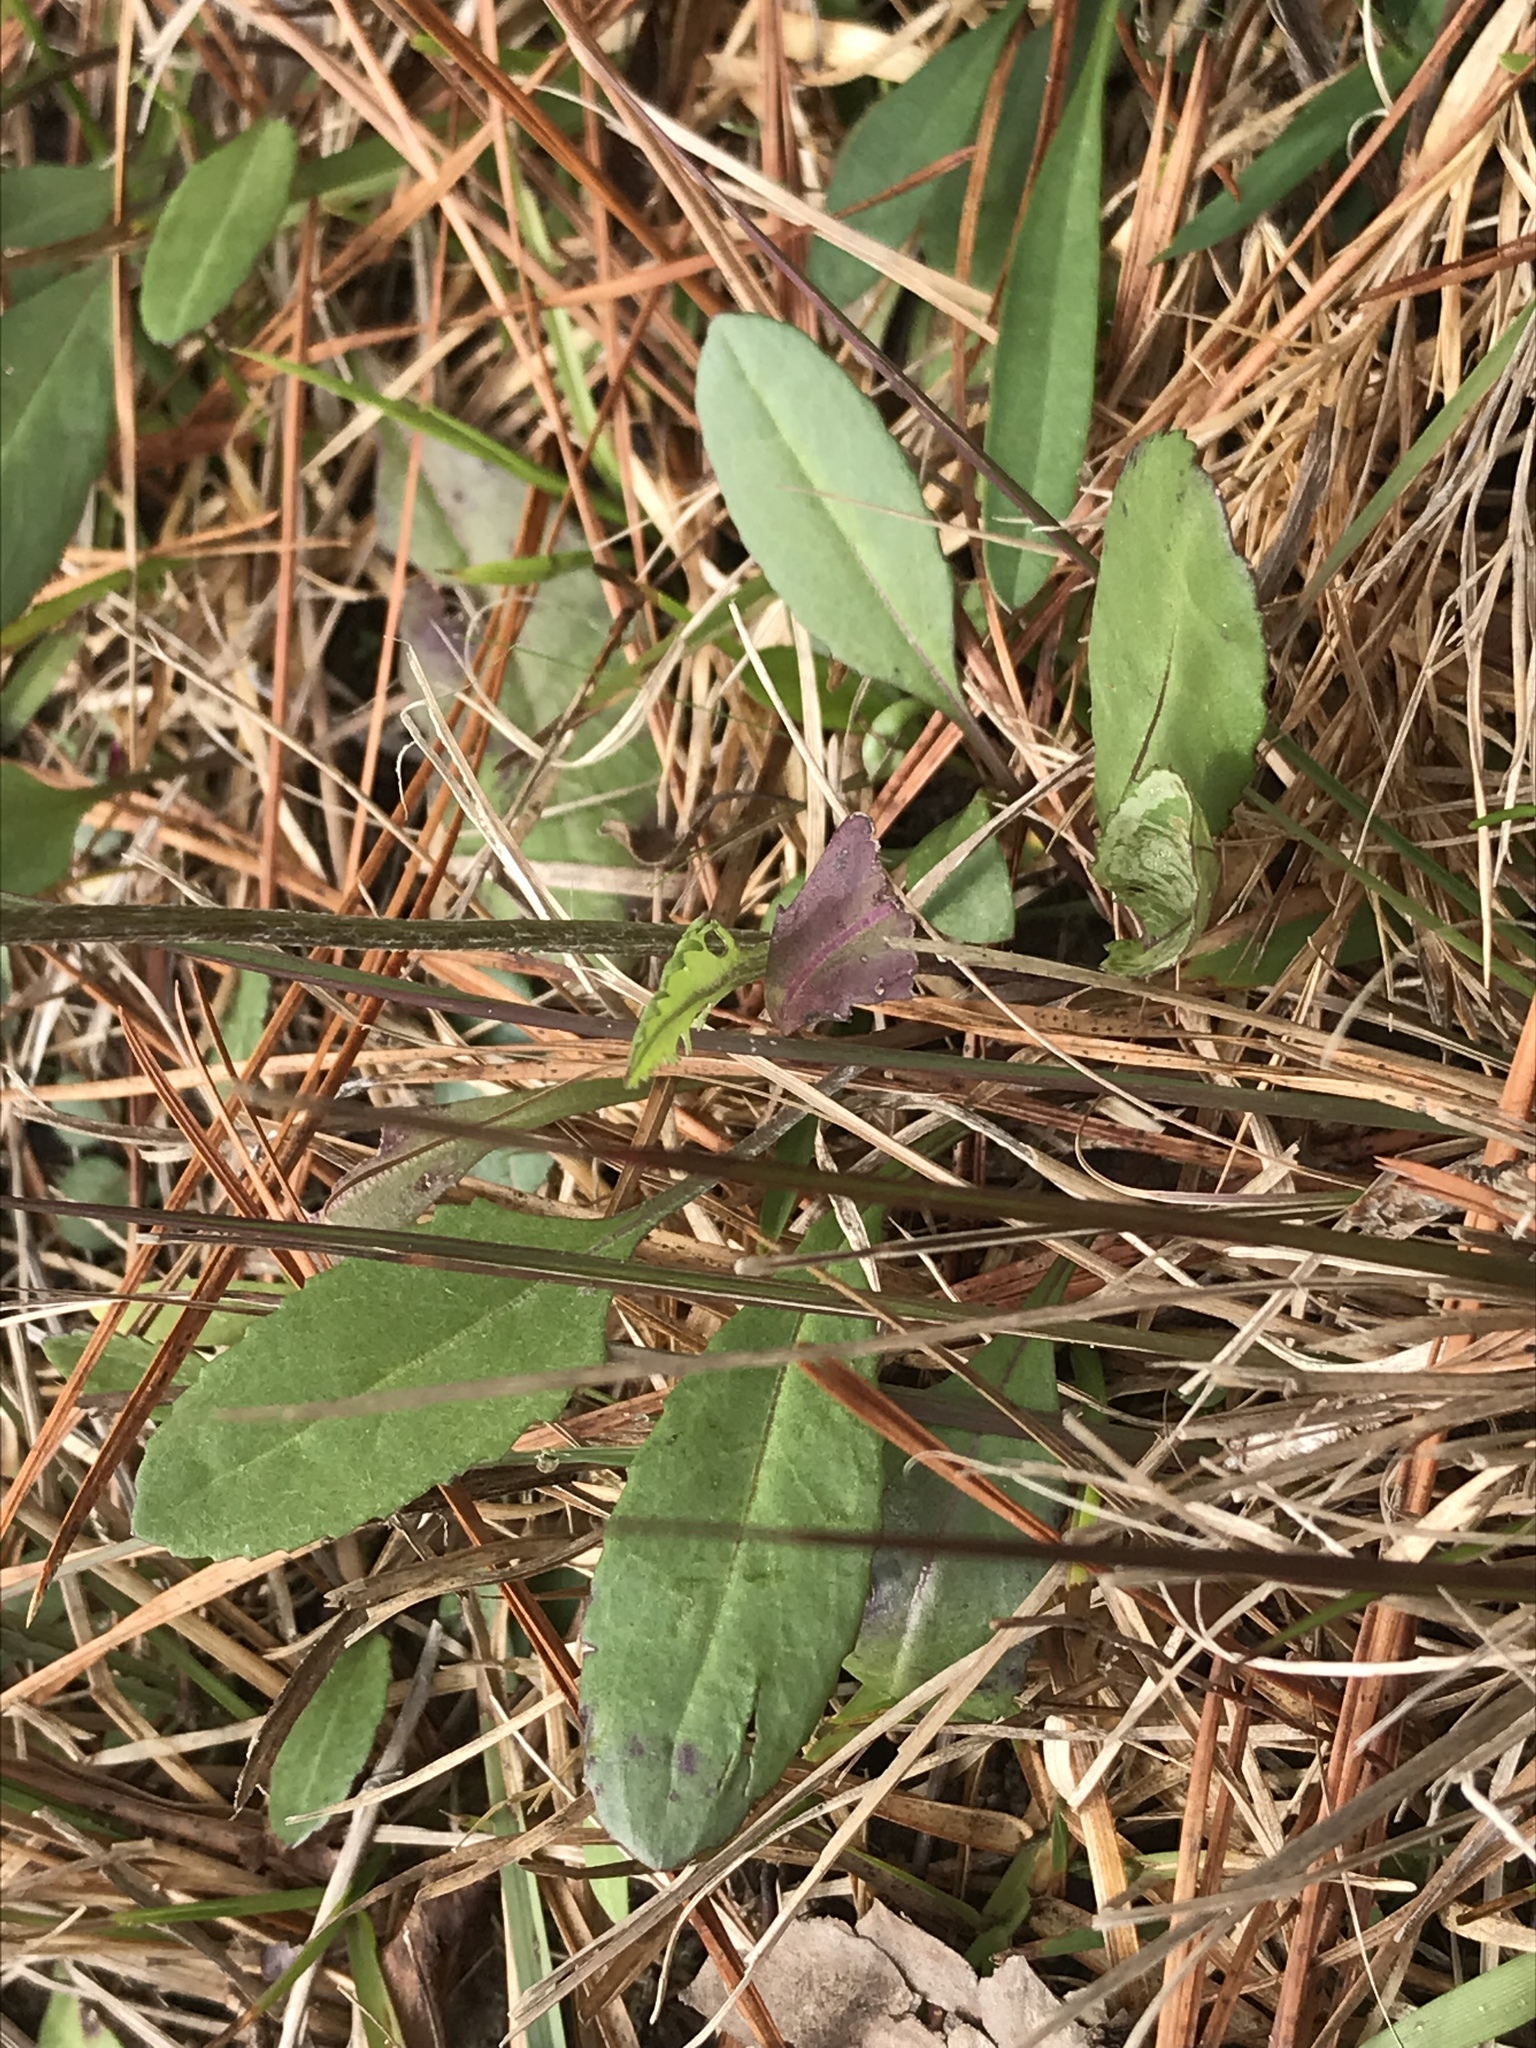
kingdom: Plantae
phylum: Tracheophyta
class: Magnoliopsida
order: Asterales
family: Asteraceae
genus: Packera
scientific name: Packera plattensis
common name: Prairie groundsel
